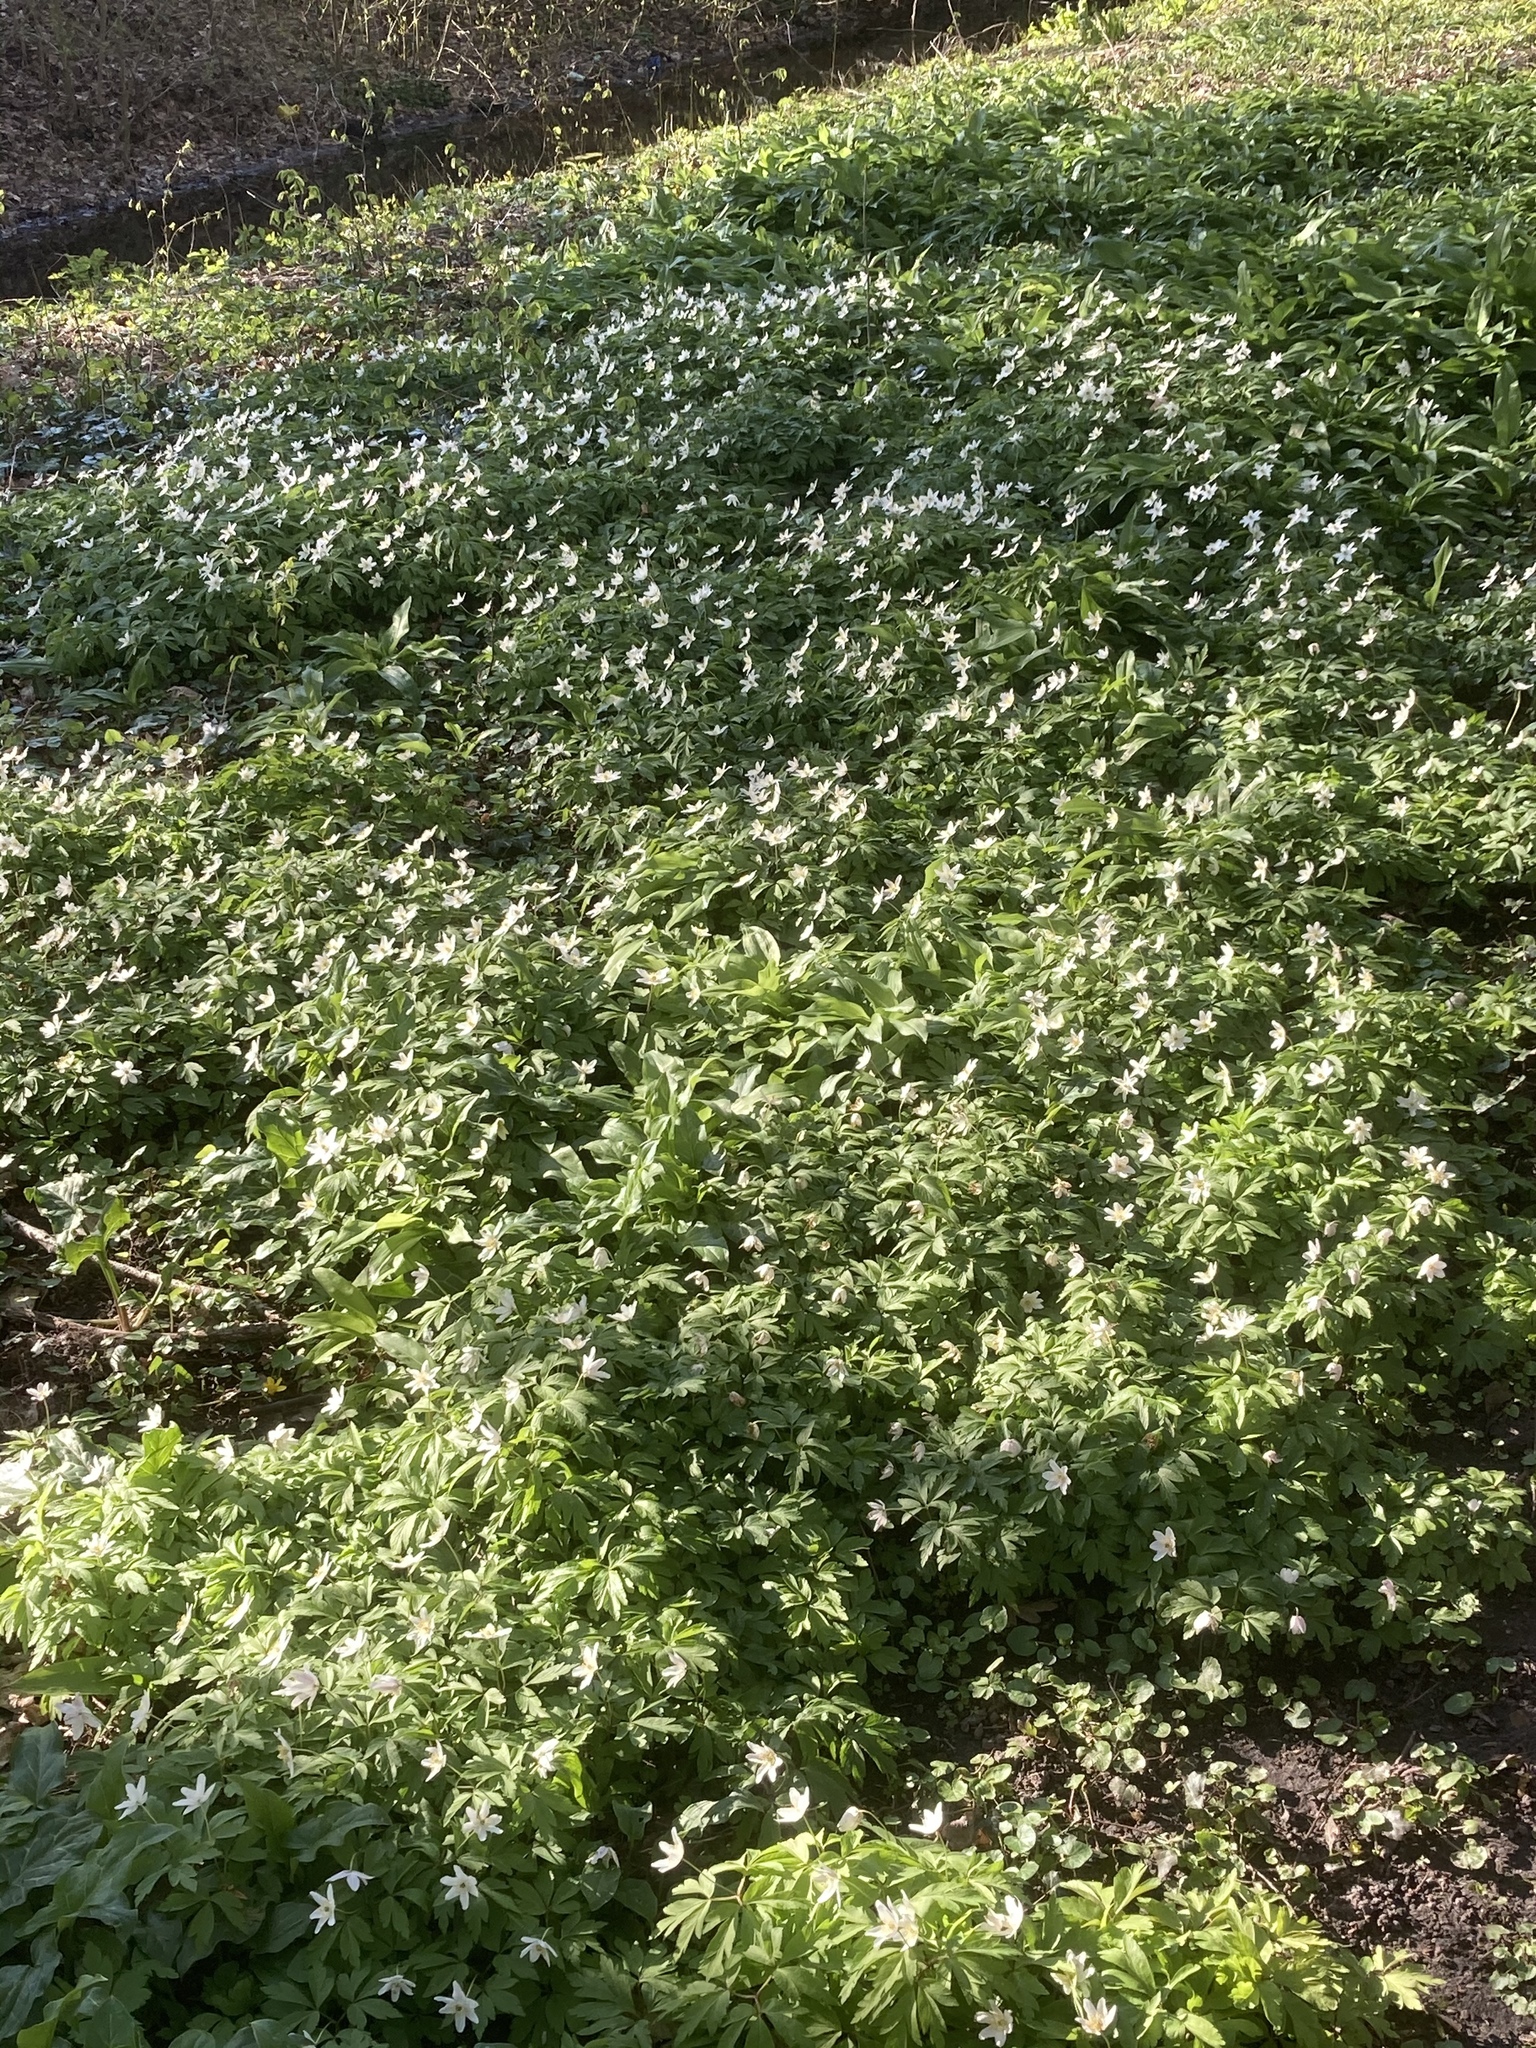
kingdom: Plantae
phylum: Tracheophyta
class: Magnoliopsida
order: Ranunculales
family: Ranunculaceae
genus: Anemone
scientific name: Anemone nemorosa
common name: Wood anemone
